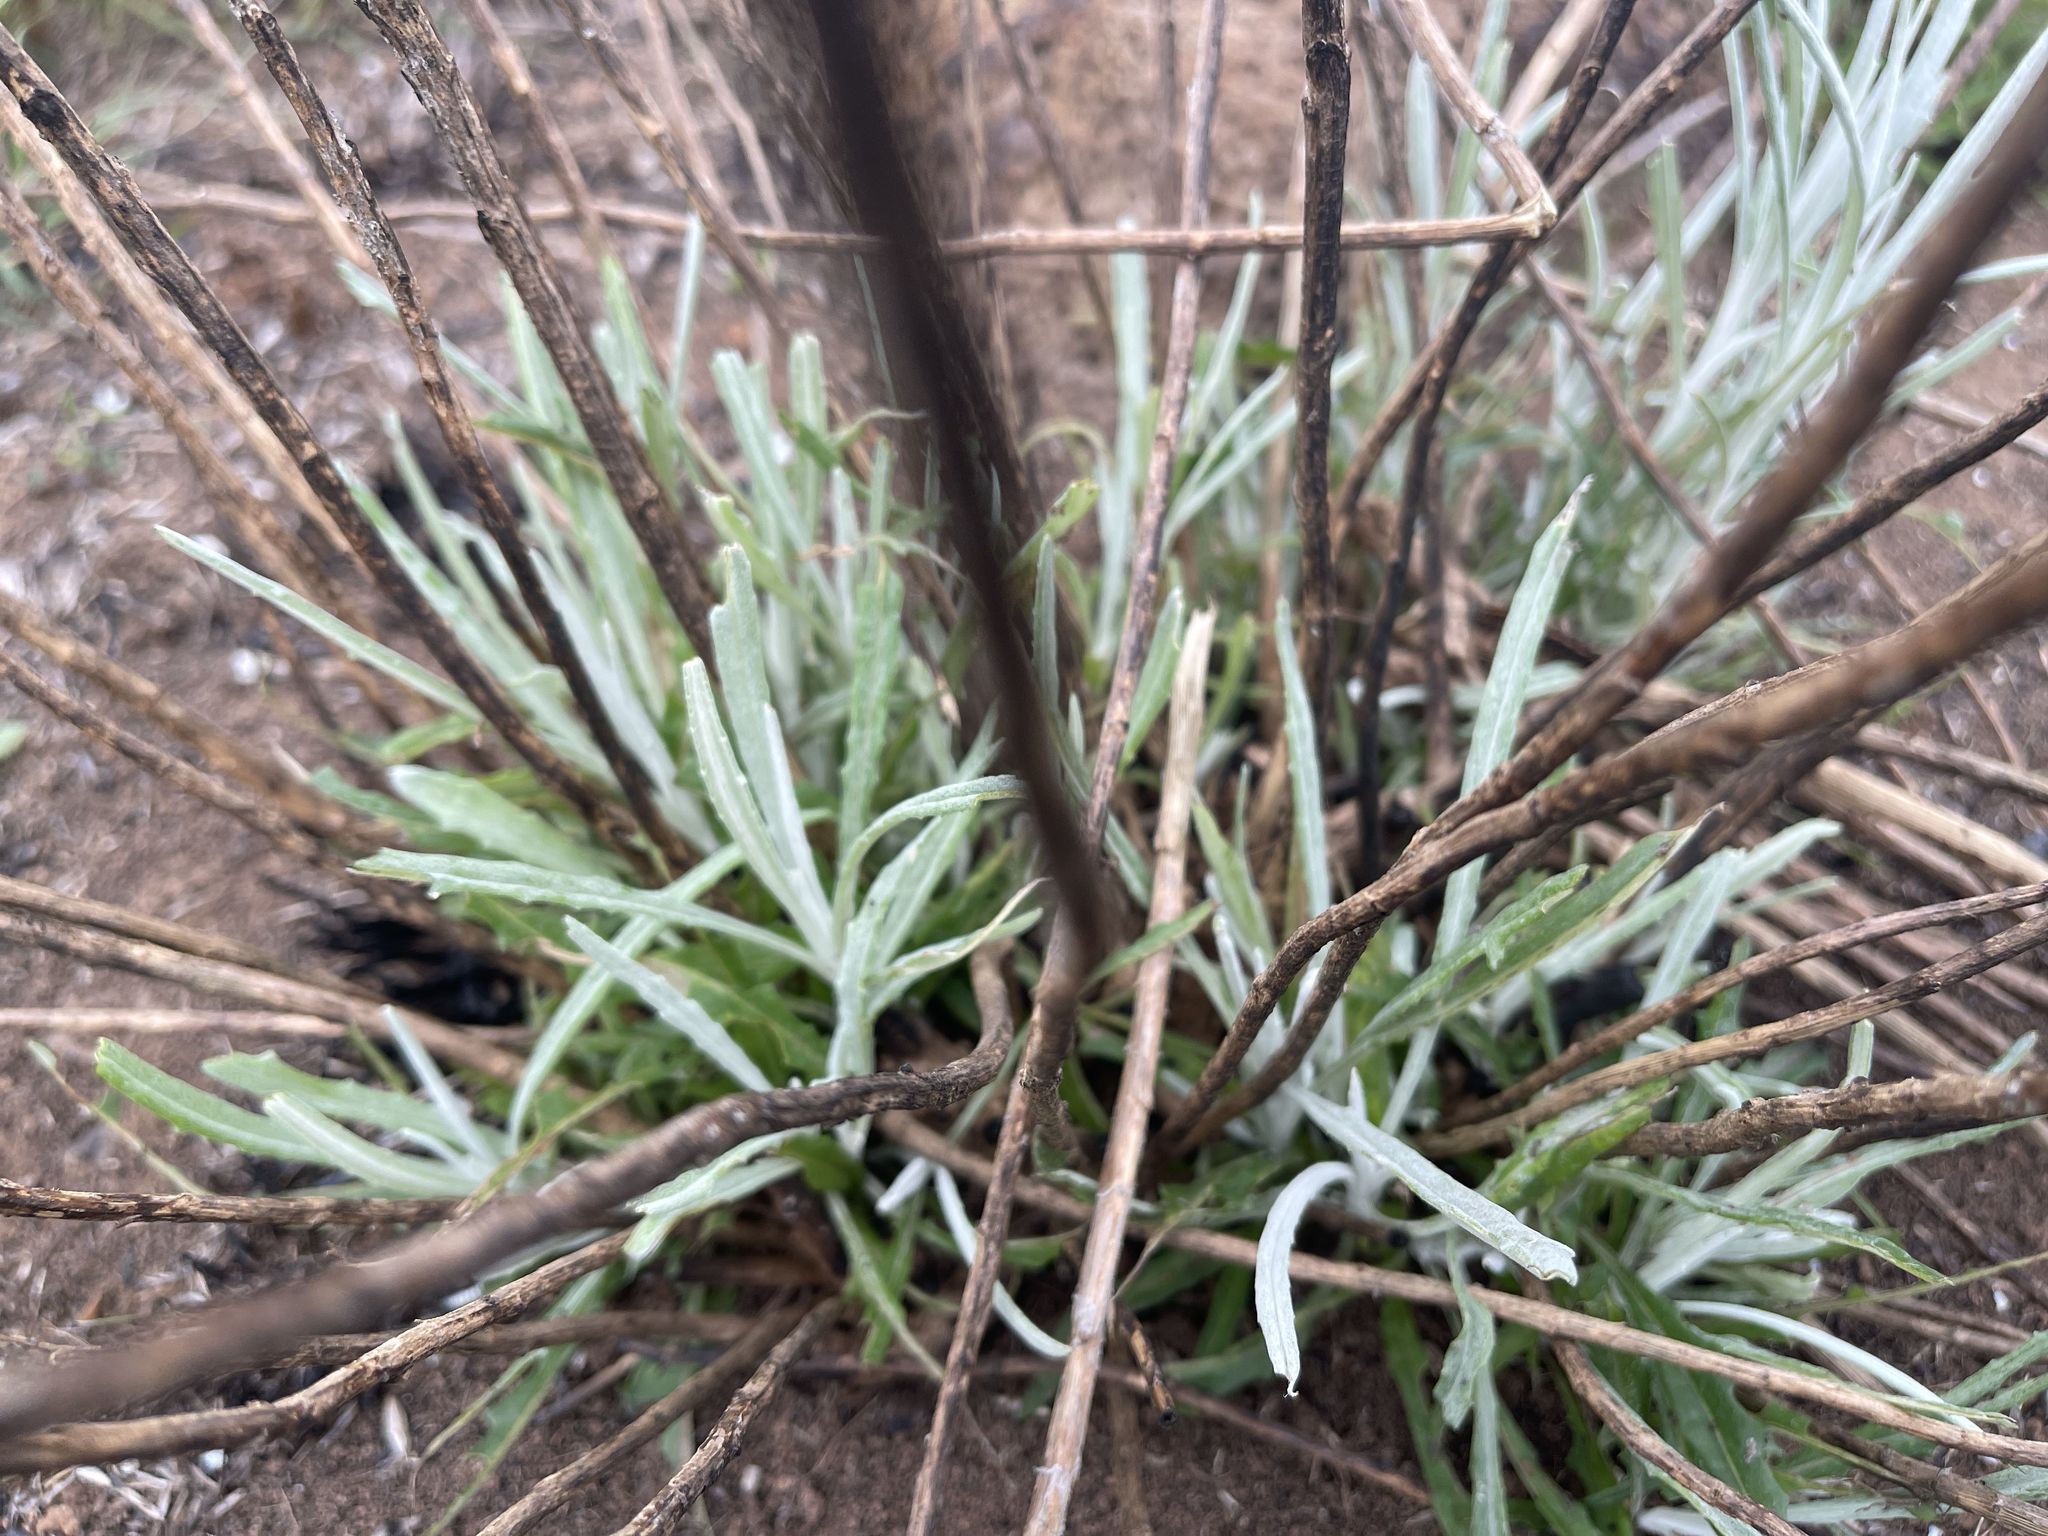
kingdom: Plantae
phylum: Tracheophyta
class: Magnoliopsida
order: Asterales
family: Asteraceae
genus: Senecio
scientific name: Senecio quadridentatus
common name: Cotton fireweed
